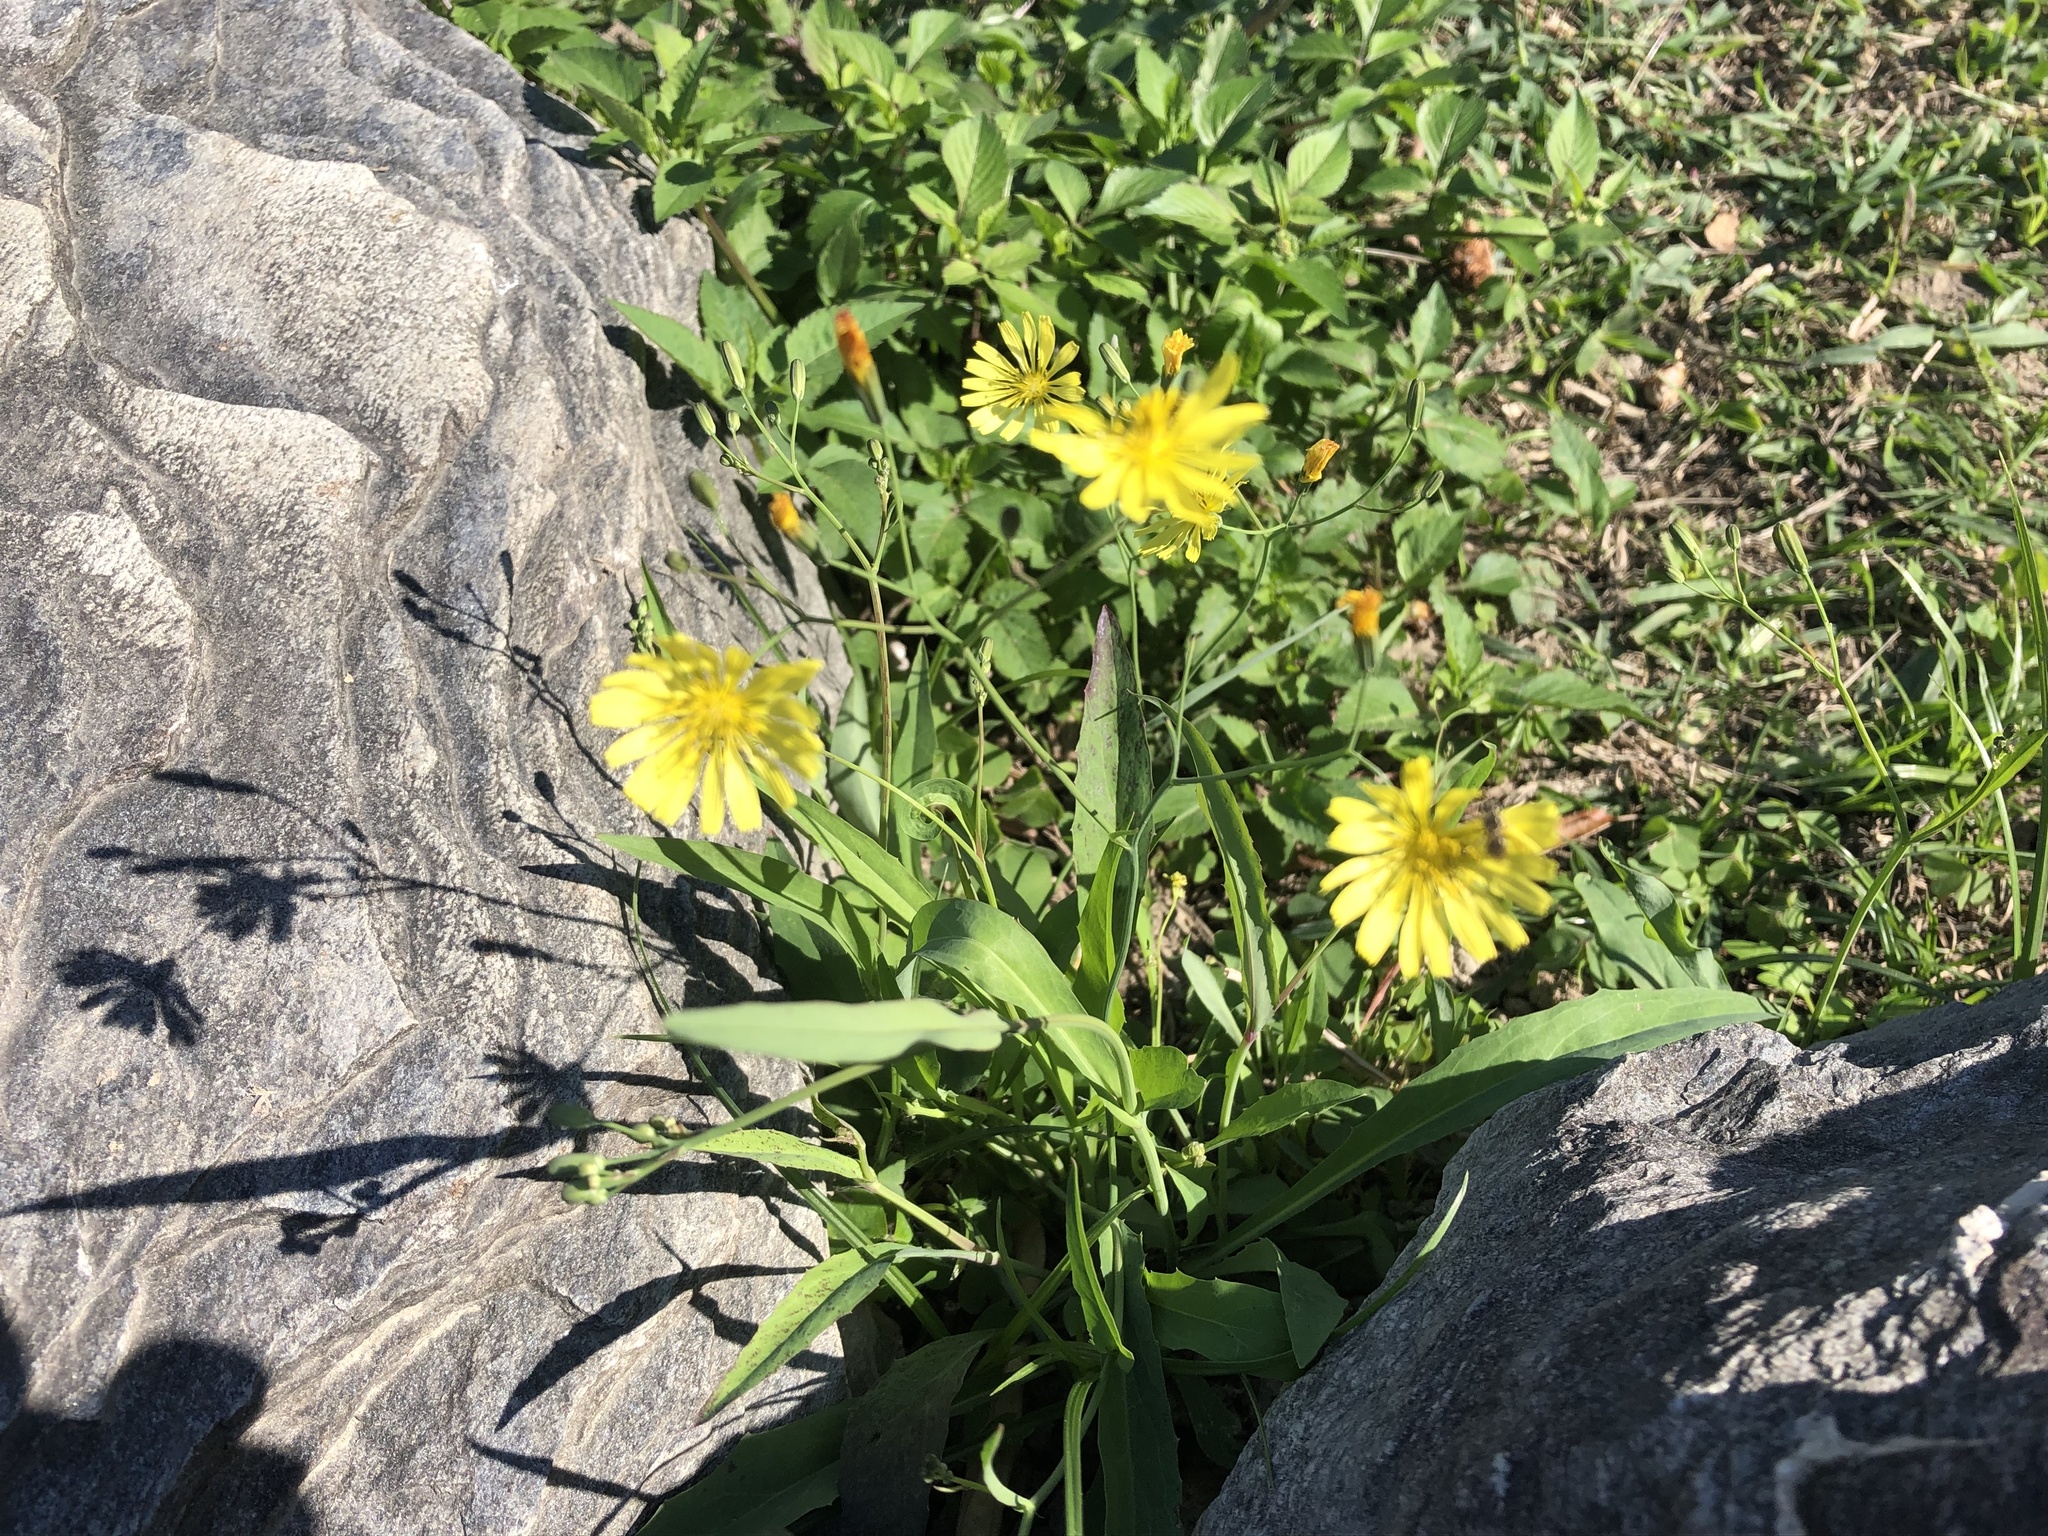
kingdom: Plantae
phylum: Tracheophyta
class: Magnoliopsida
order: Asterales
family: Asteraceae
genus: Ixeris
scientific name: Ixeris chinensis
